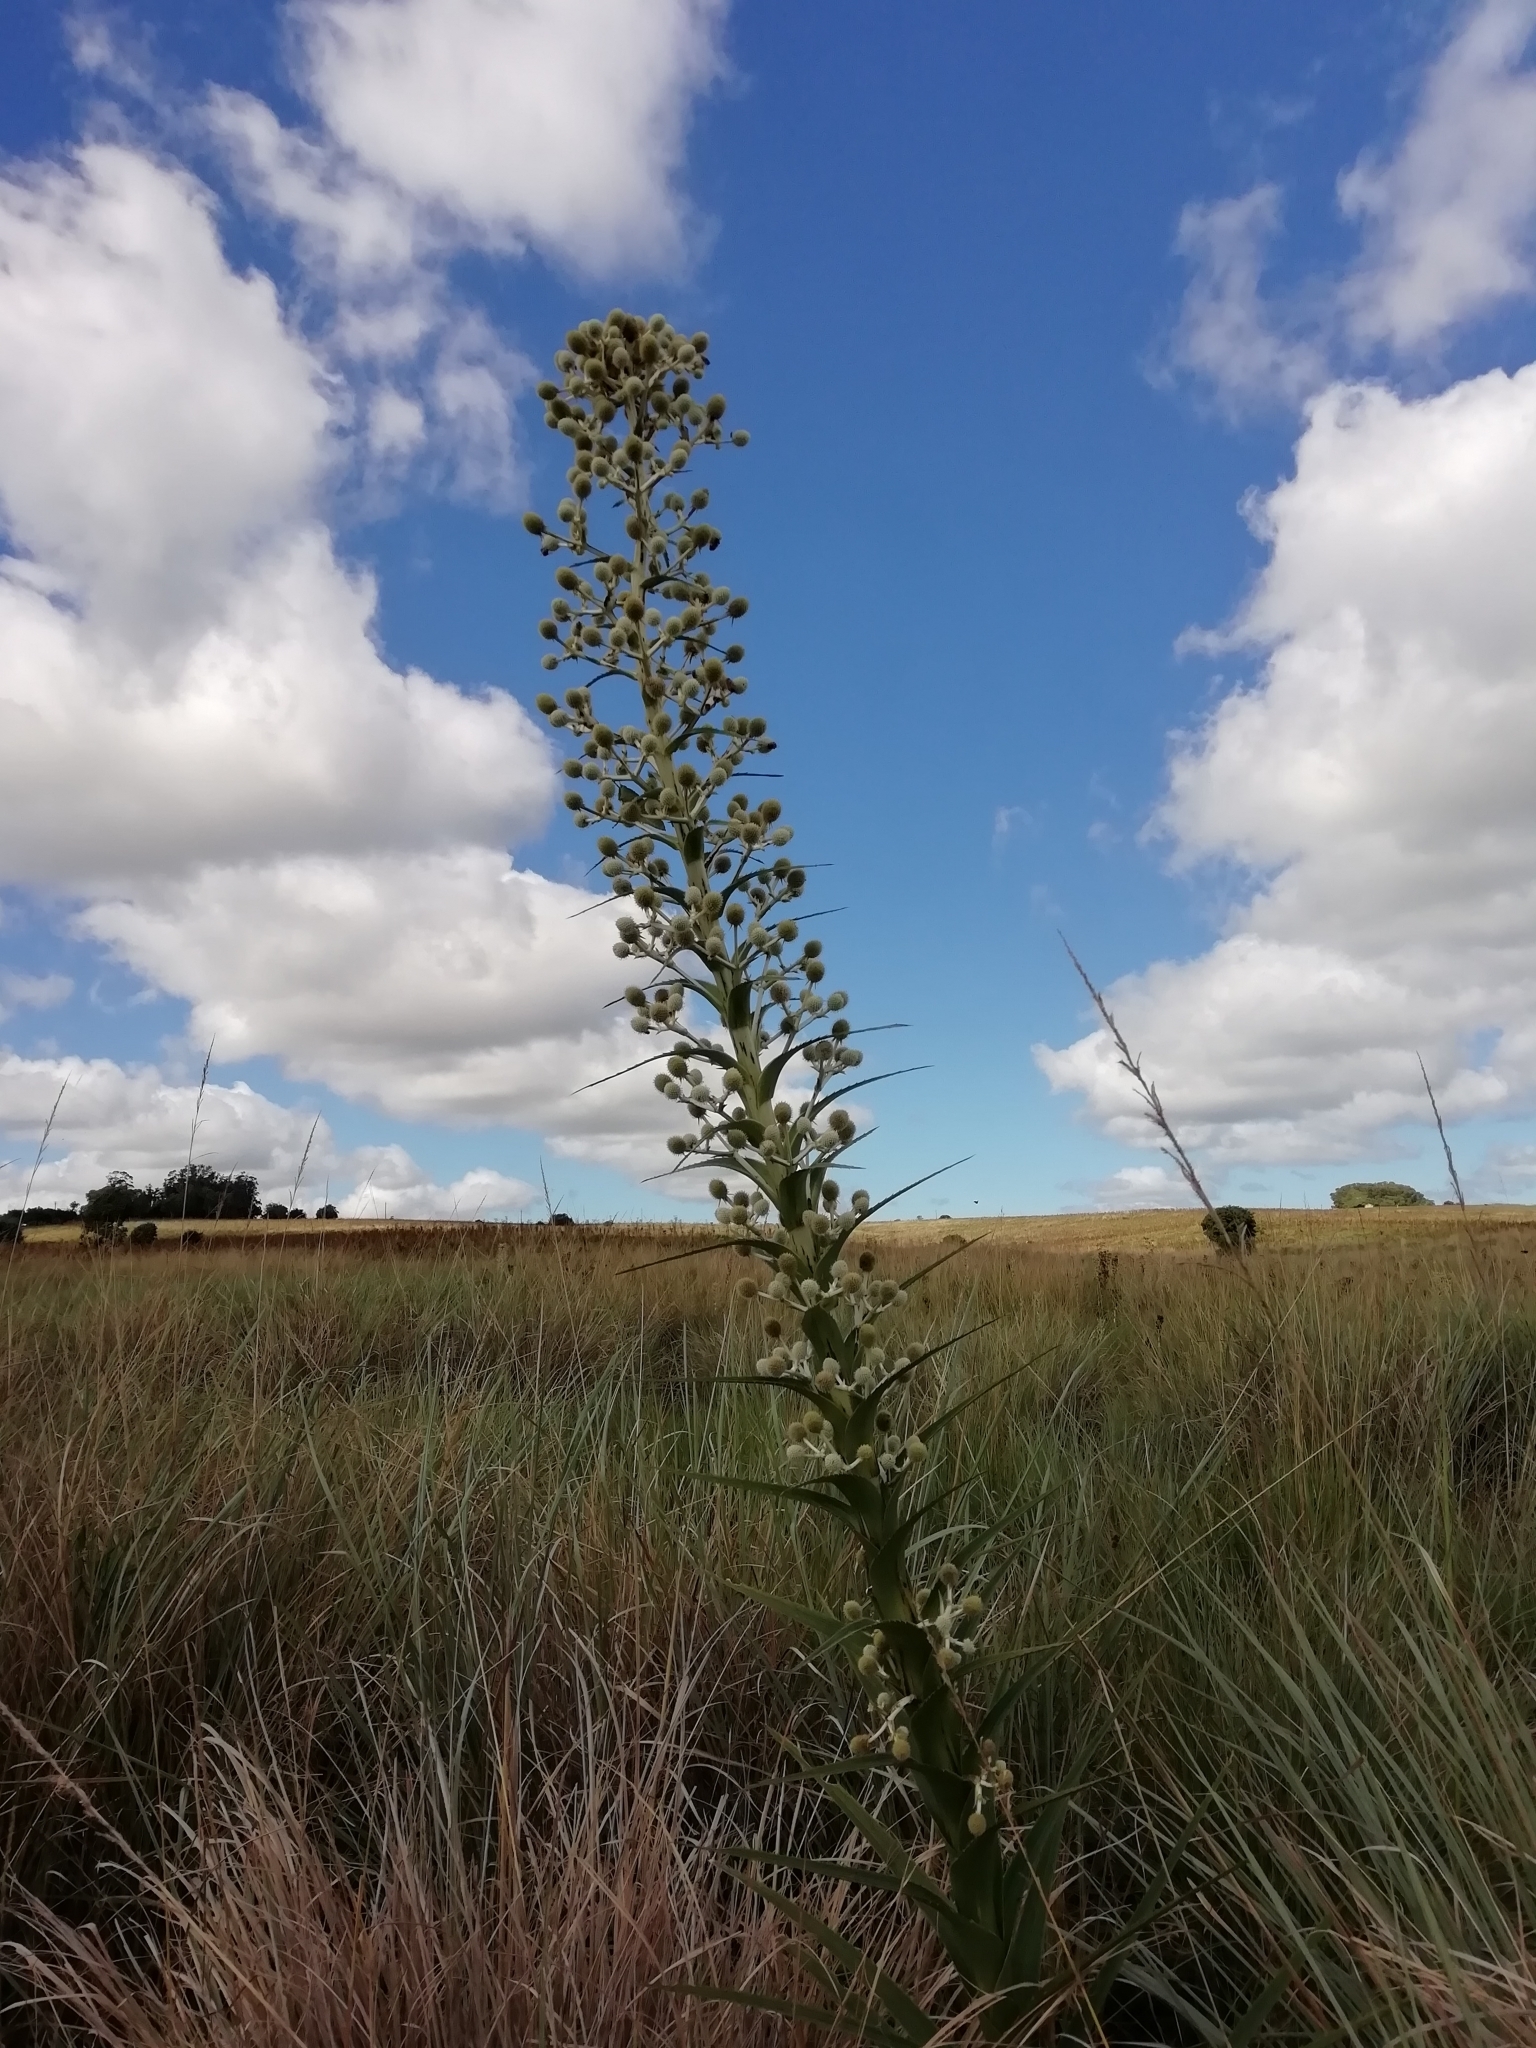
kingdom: Plantae
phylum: Tracheophyta
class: Magnoliopsida
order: Apiales
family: Apiaceae
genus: Eryngium
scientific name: Eryngium eburneum
